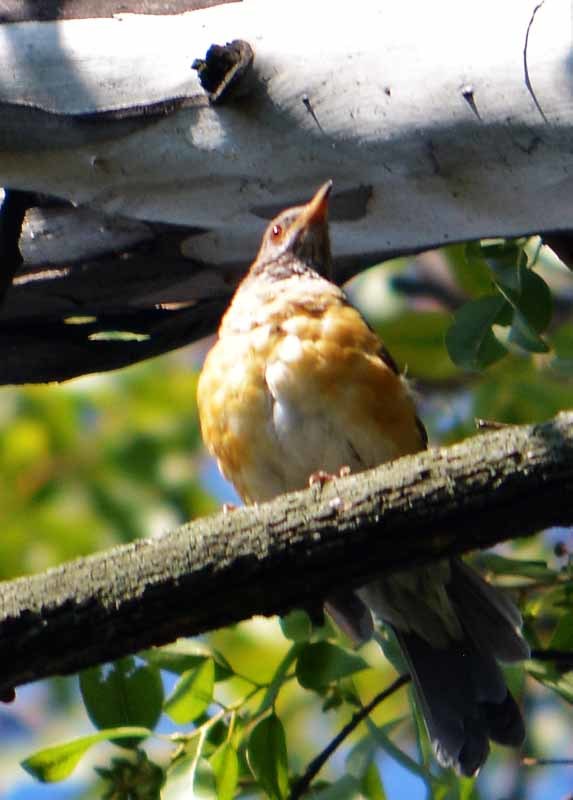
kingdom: Animalia
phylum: Chordata
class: Aves
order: Passeriformes
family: Turdidae
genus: Turdus
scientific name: Turdus rufopalliatus
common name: Rufous-backed robin
